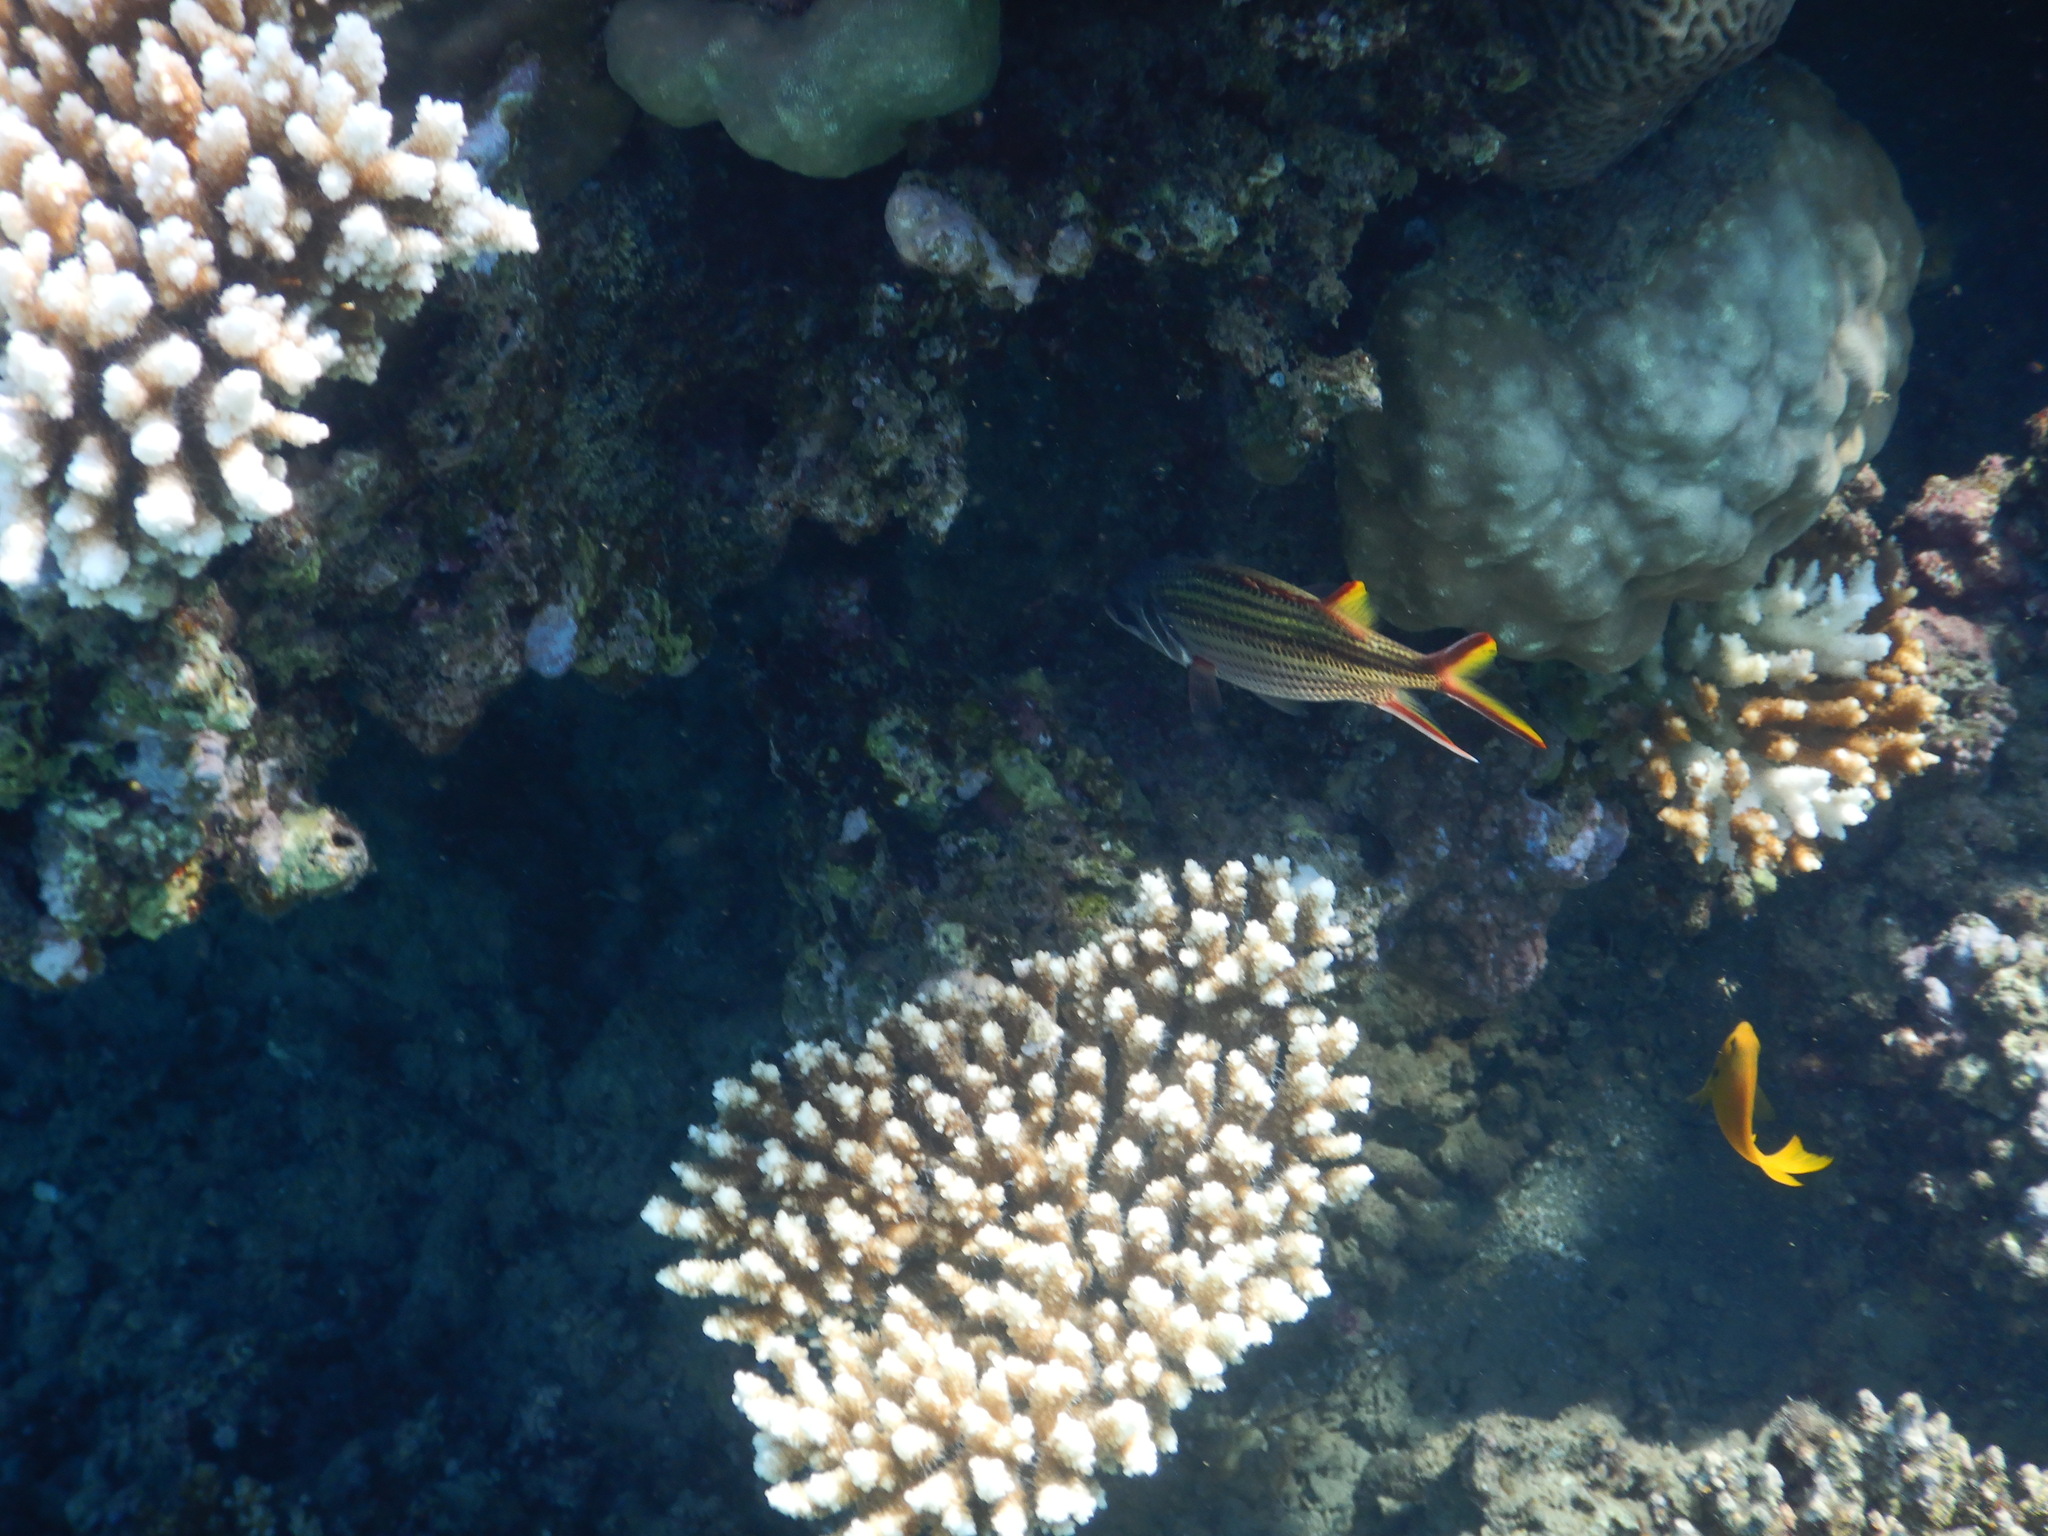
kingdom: Animalia
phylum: Chordata
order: Beryciformes
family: Holocentridae
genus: Neoniphon
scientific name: Neoniphon sammara
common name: Sammara squirrelfish
